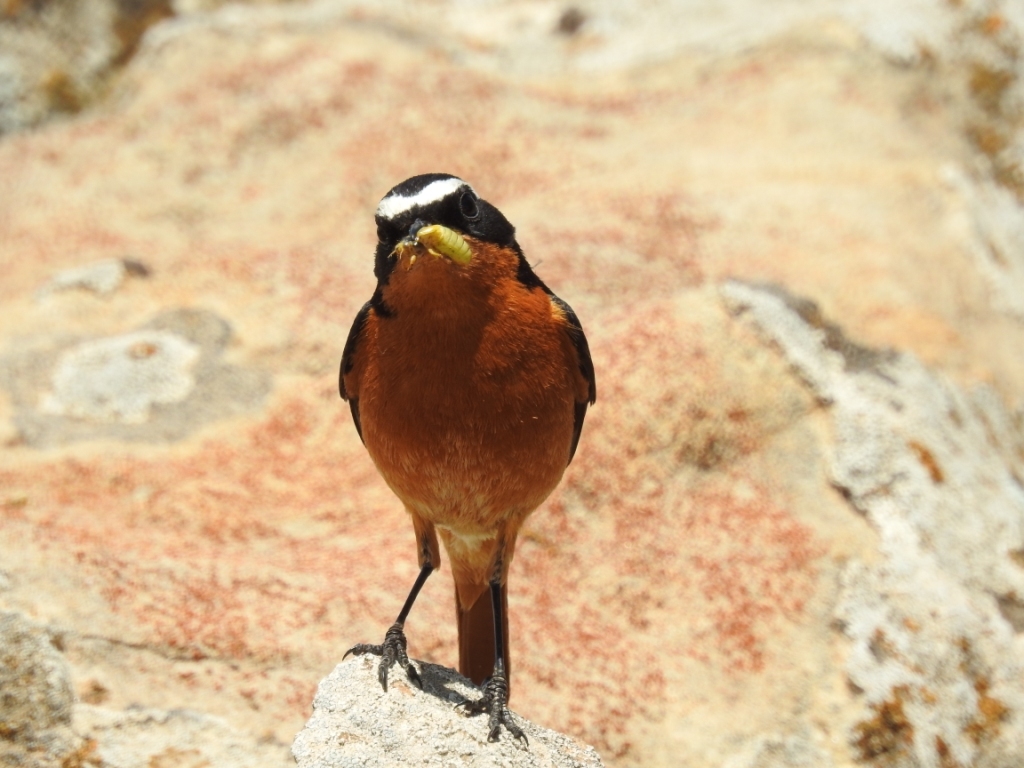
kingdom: Animalia
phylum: Chordata
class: Aves
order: Passeriformes
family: Muscicapidae
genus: Phoenicurus
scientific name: Phoenicurus moussieri
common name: Moussier's redstart
